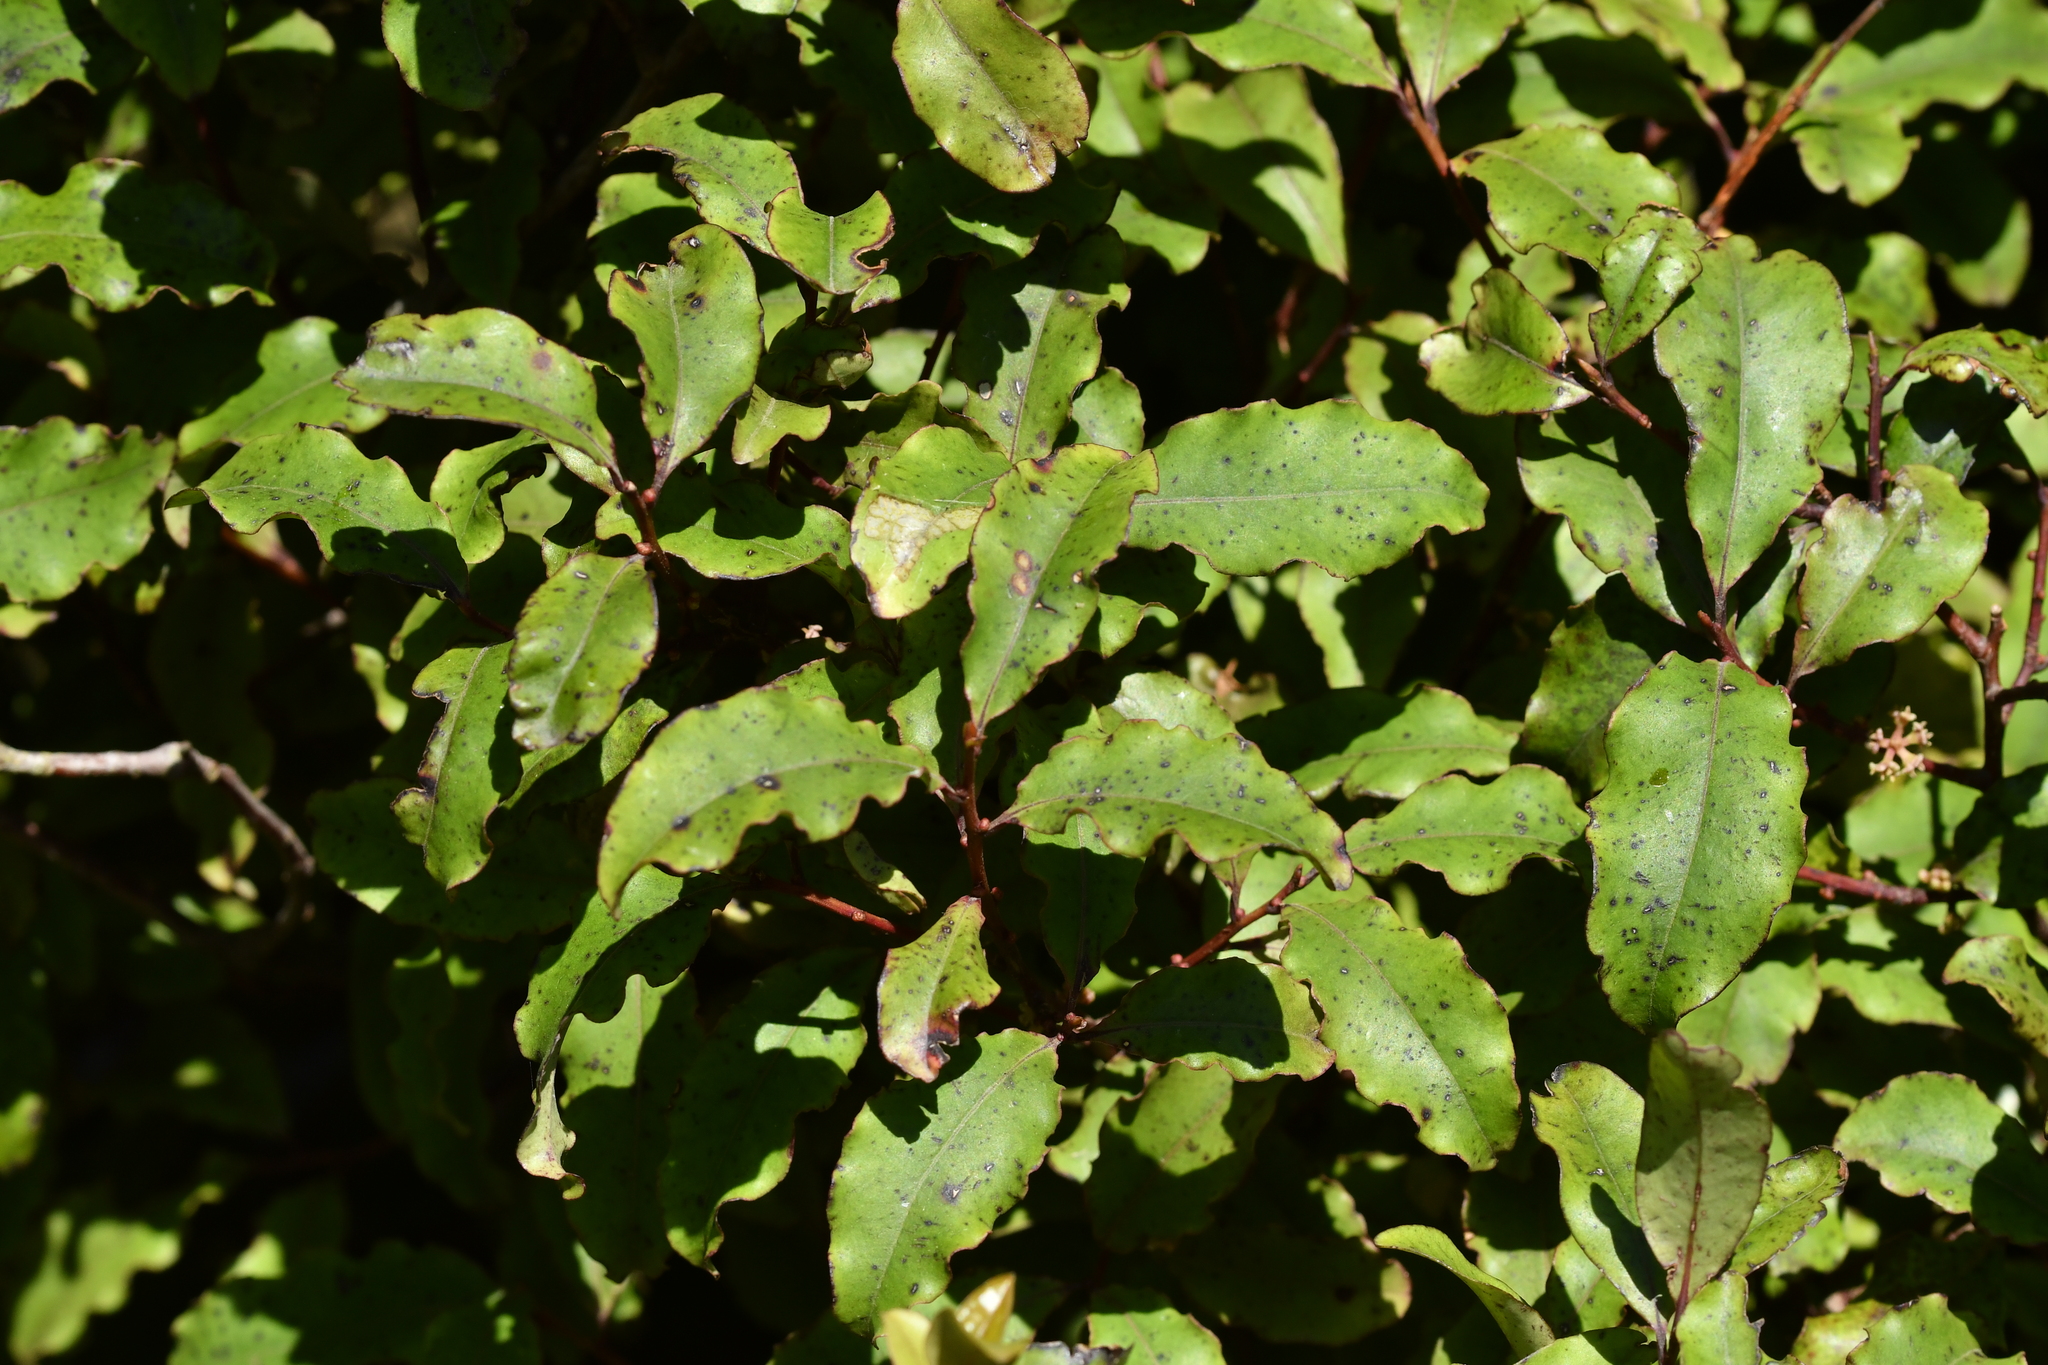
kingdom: Plantae
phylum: Tracheophyta
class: Magnoliopsida
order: Ericales
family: Primulaceae
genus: Myrsine
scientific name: Myrsine australis
